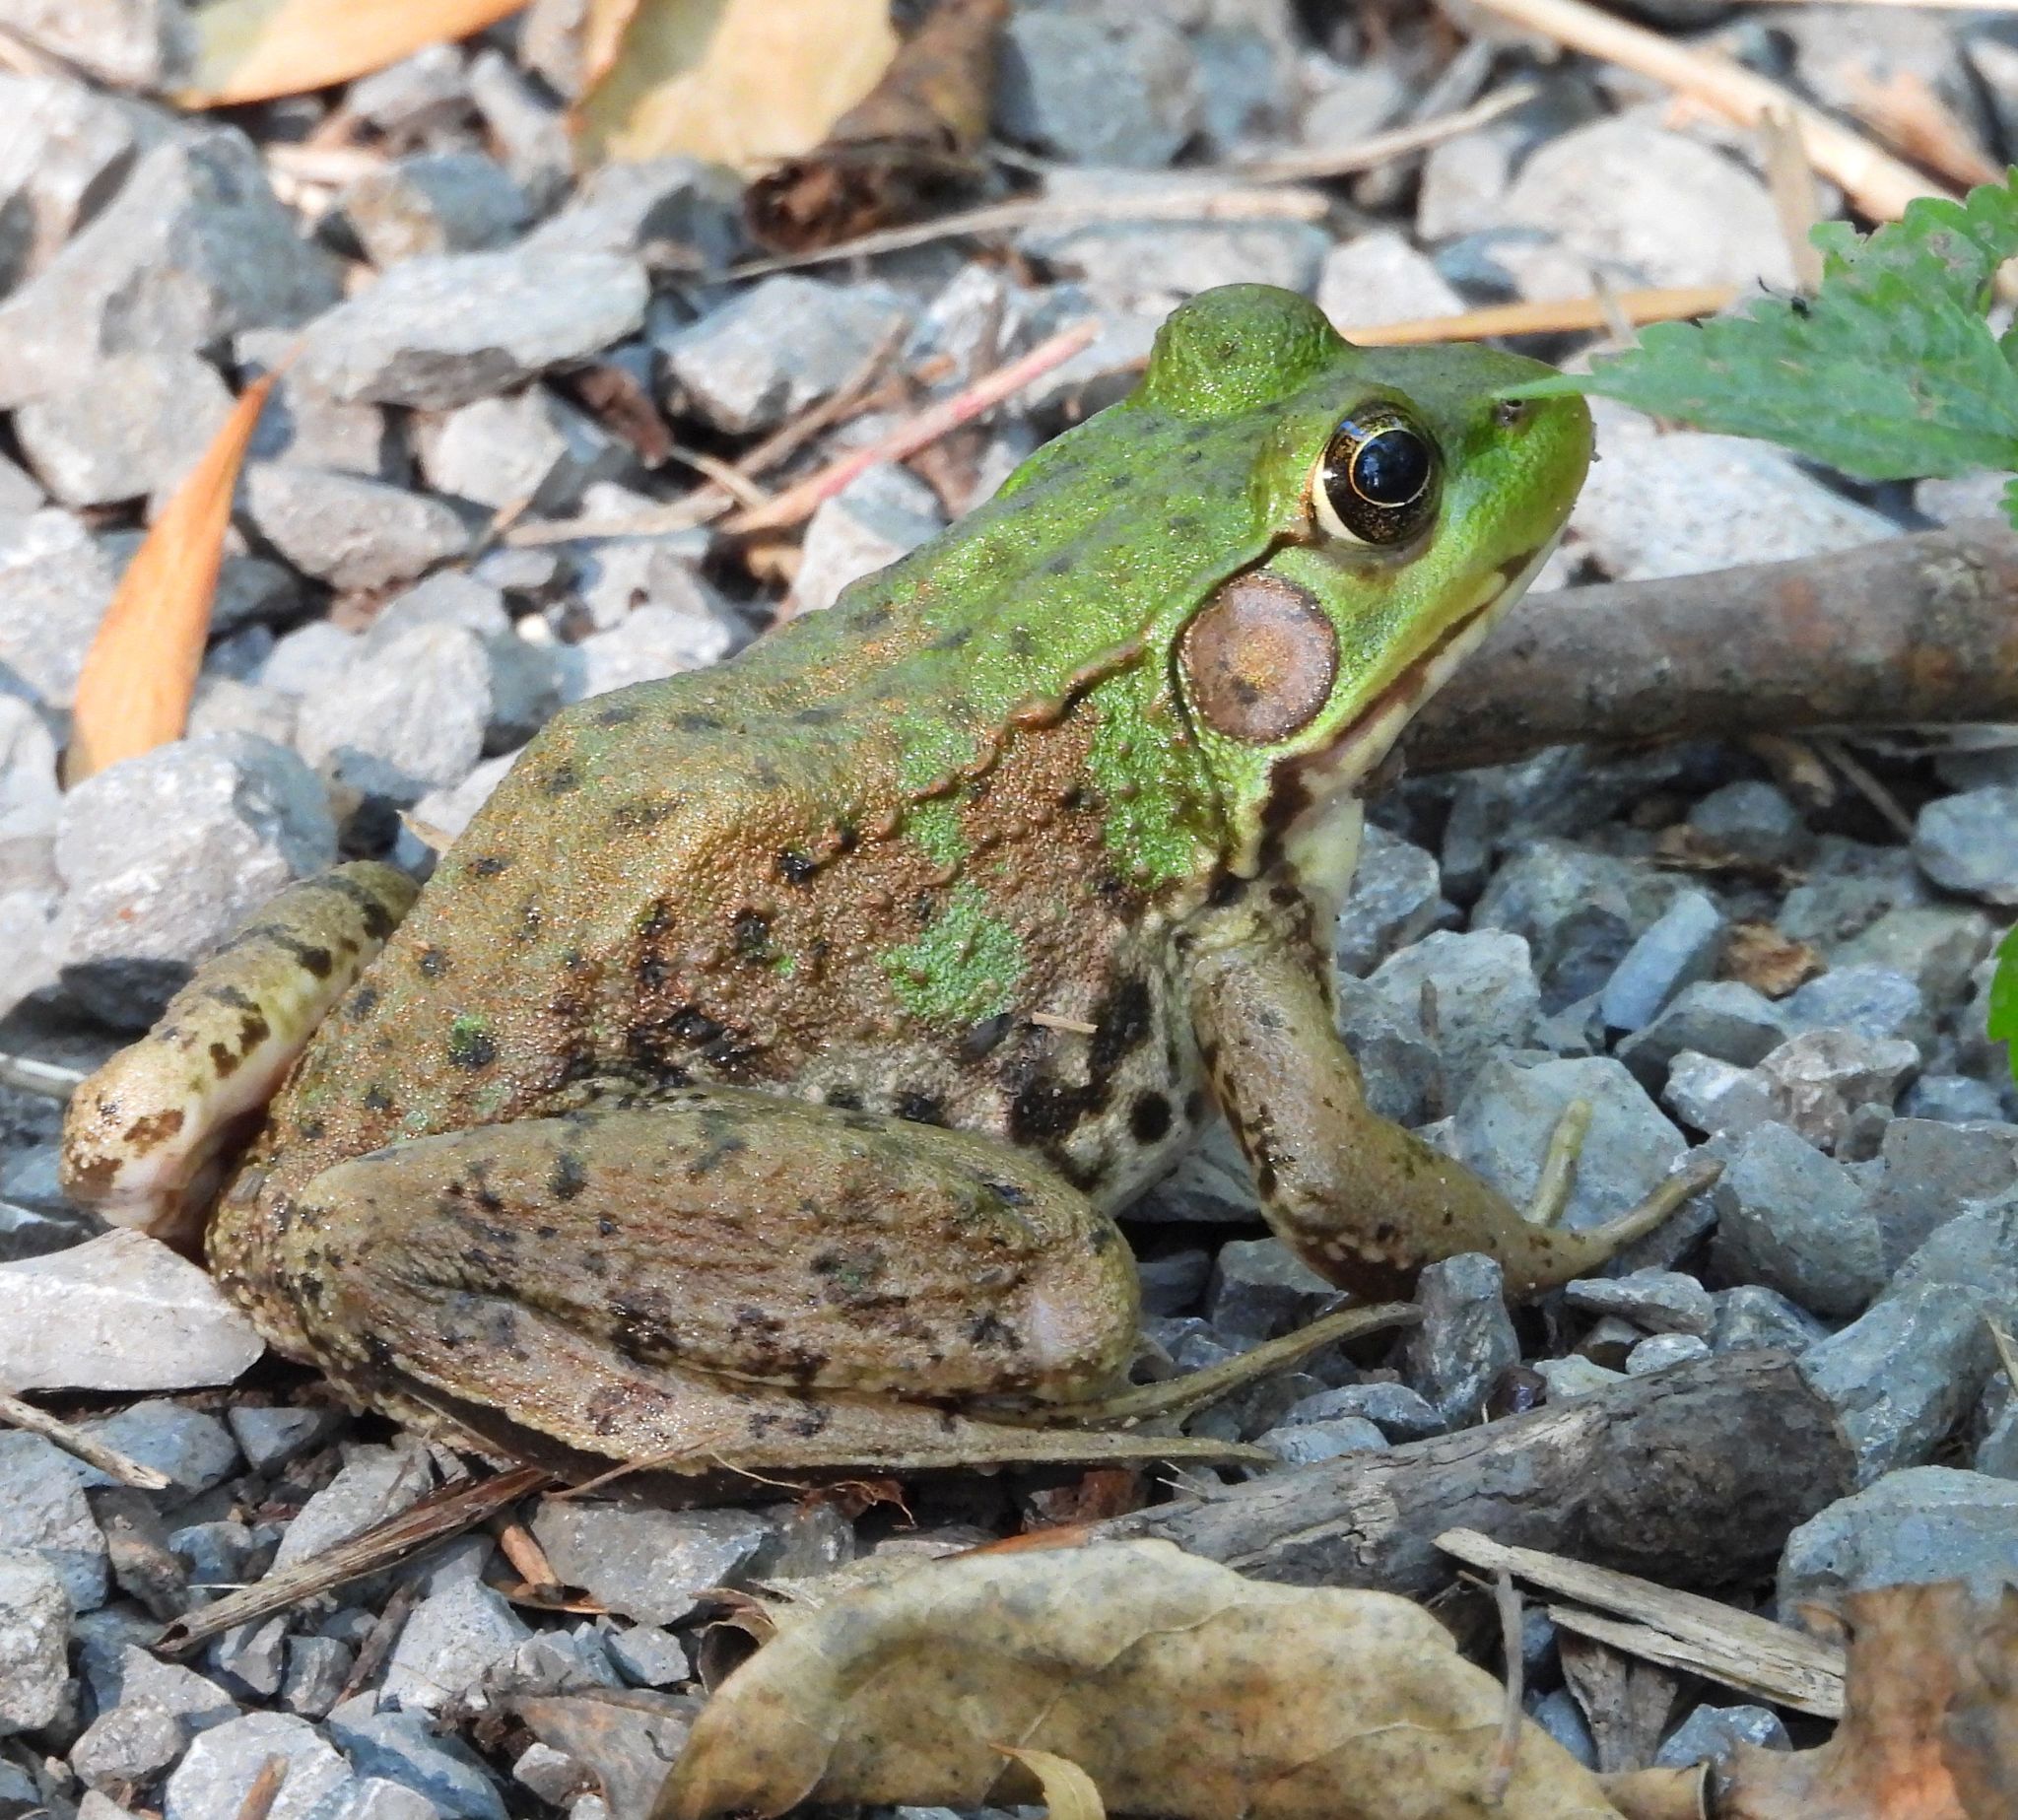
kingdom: Animalia
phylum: Chordata
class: Amphibia
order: Anura
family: Ranidae
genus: Lithobates
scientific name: Lithobates clamitans
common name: Green frog
